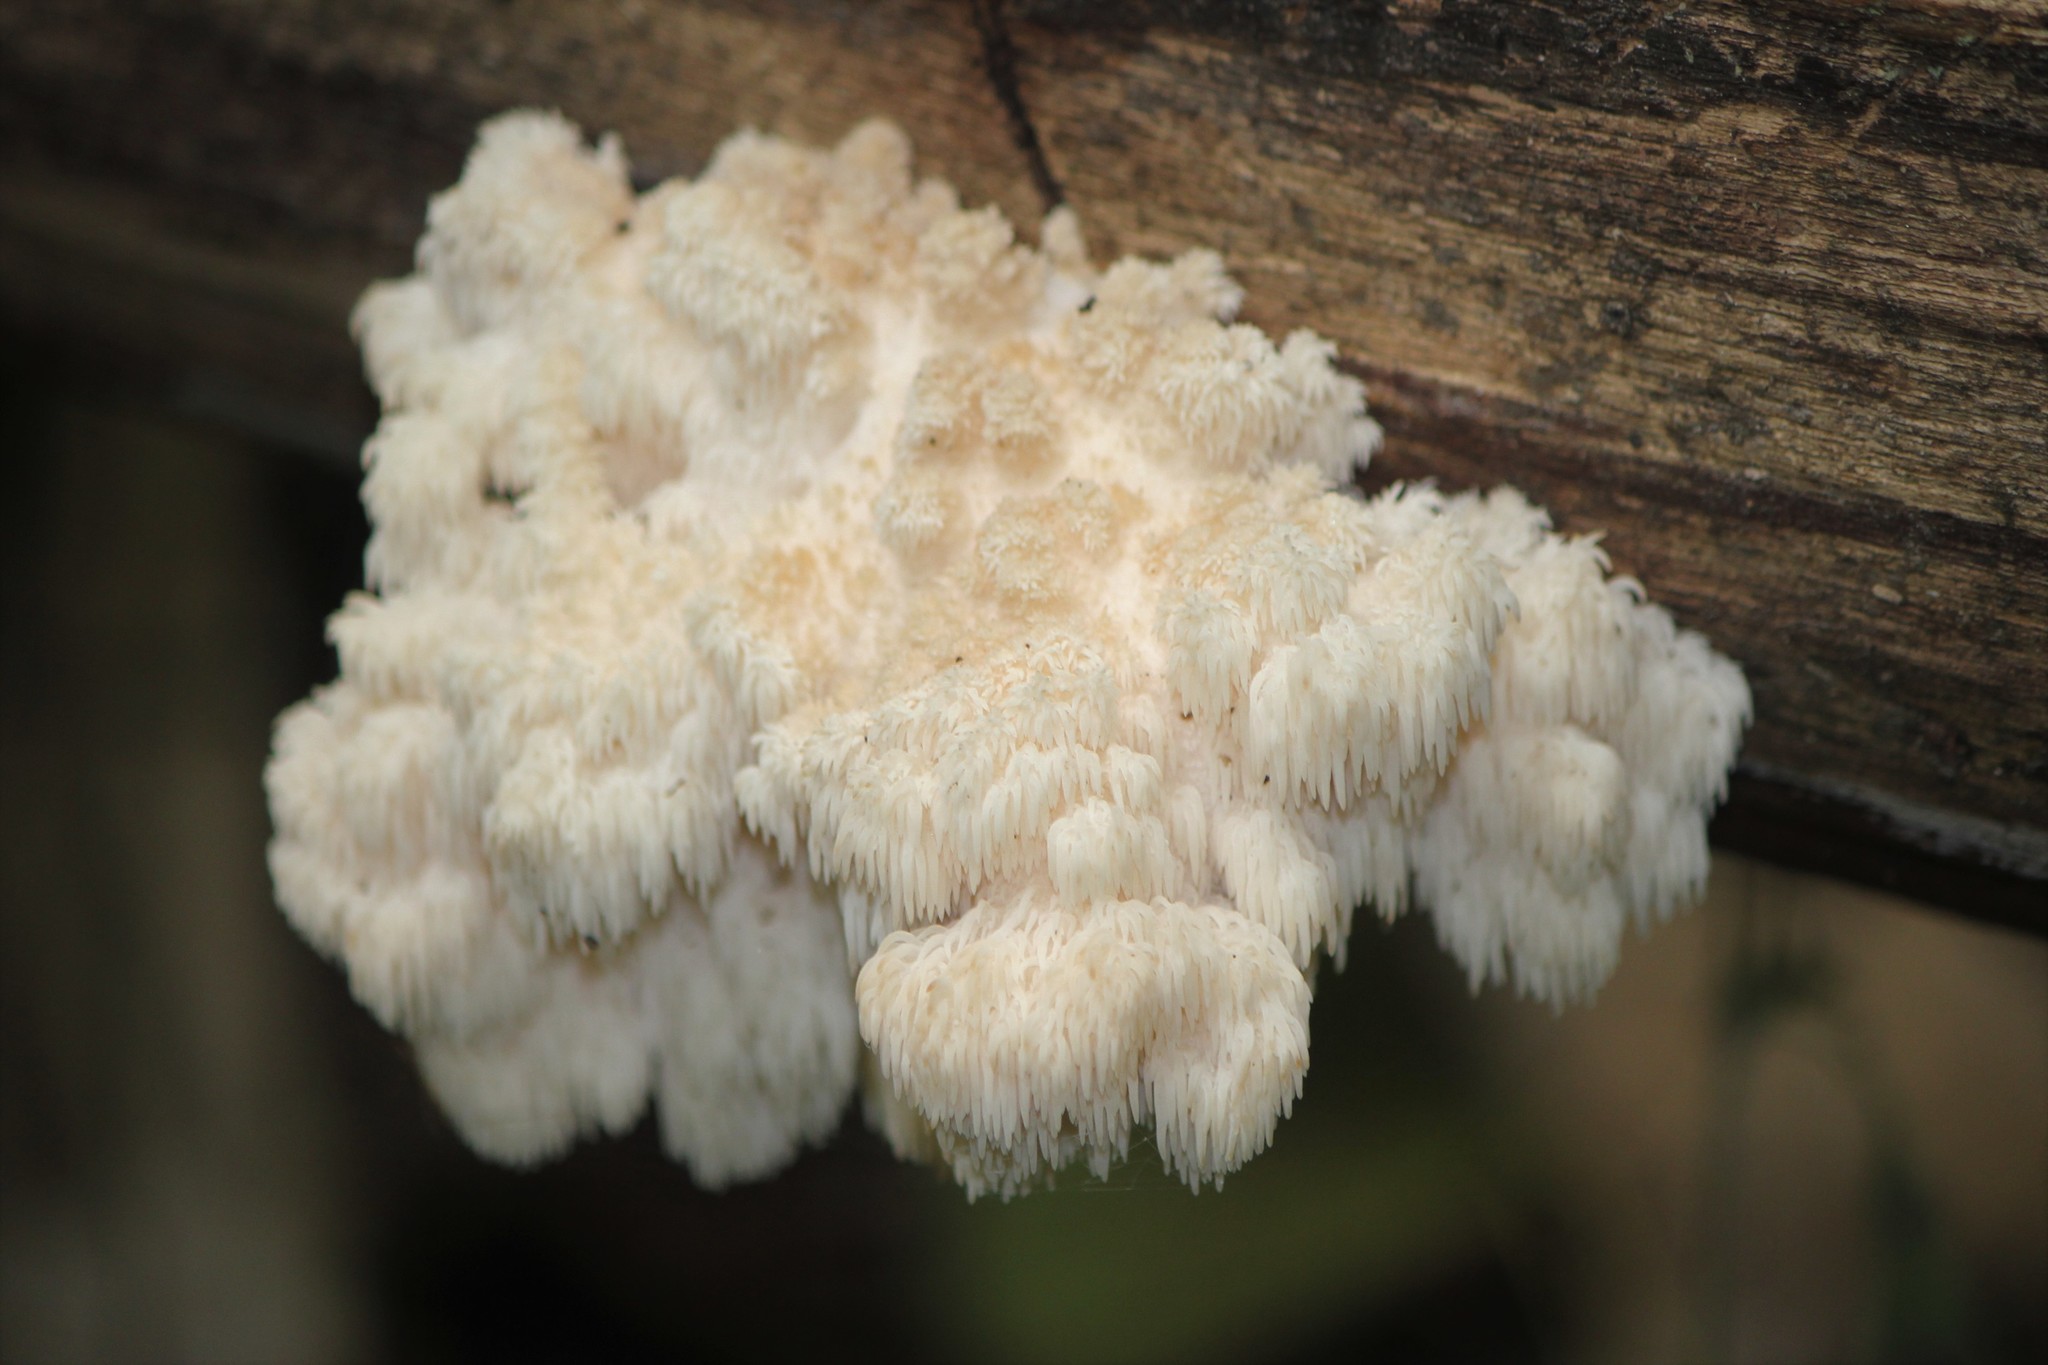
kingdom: Fungi
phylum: Basidiomycota
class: Agaricomycetes
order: Russulales
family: Hericiaceae
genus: Hericium
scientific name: Hericium americanum
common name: Bear's head tooth
